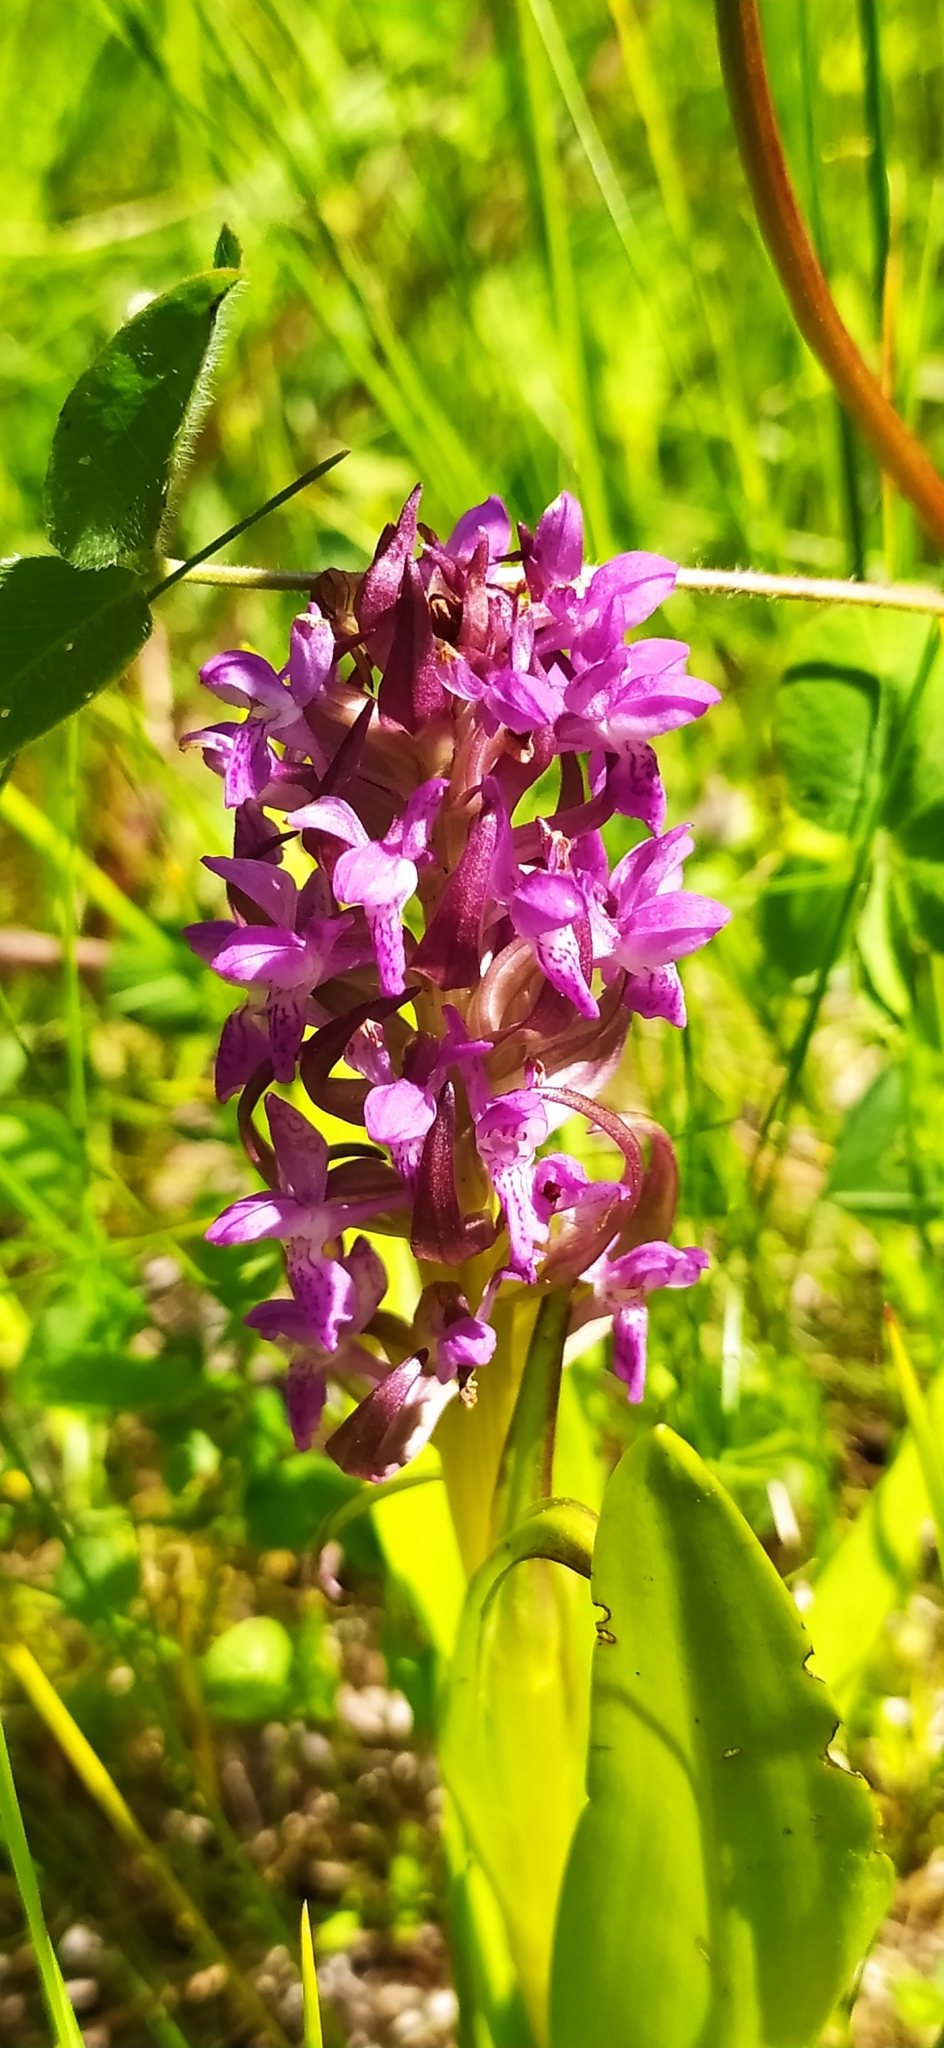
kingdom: Plantae
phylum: Tracheophyta
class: Liliopsida
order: Asparagales
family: Orchidaceae
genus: Dactylorhiza
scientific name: Dactylorhiza incarnata
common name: Early marsh-orchid
